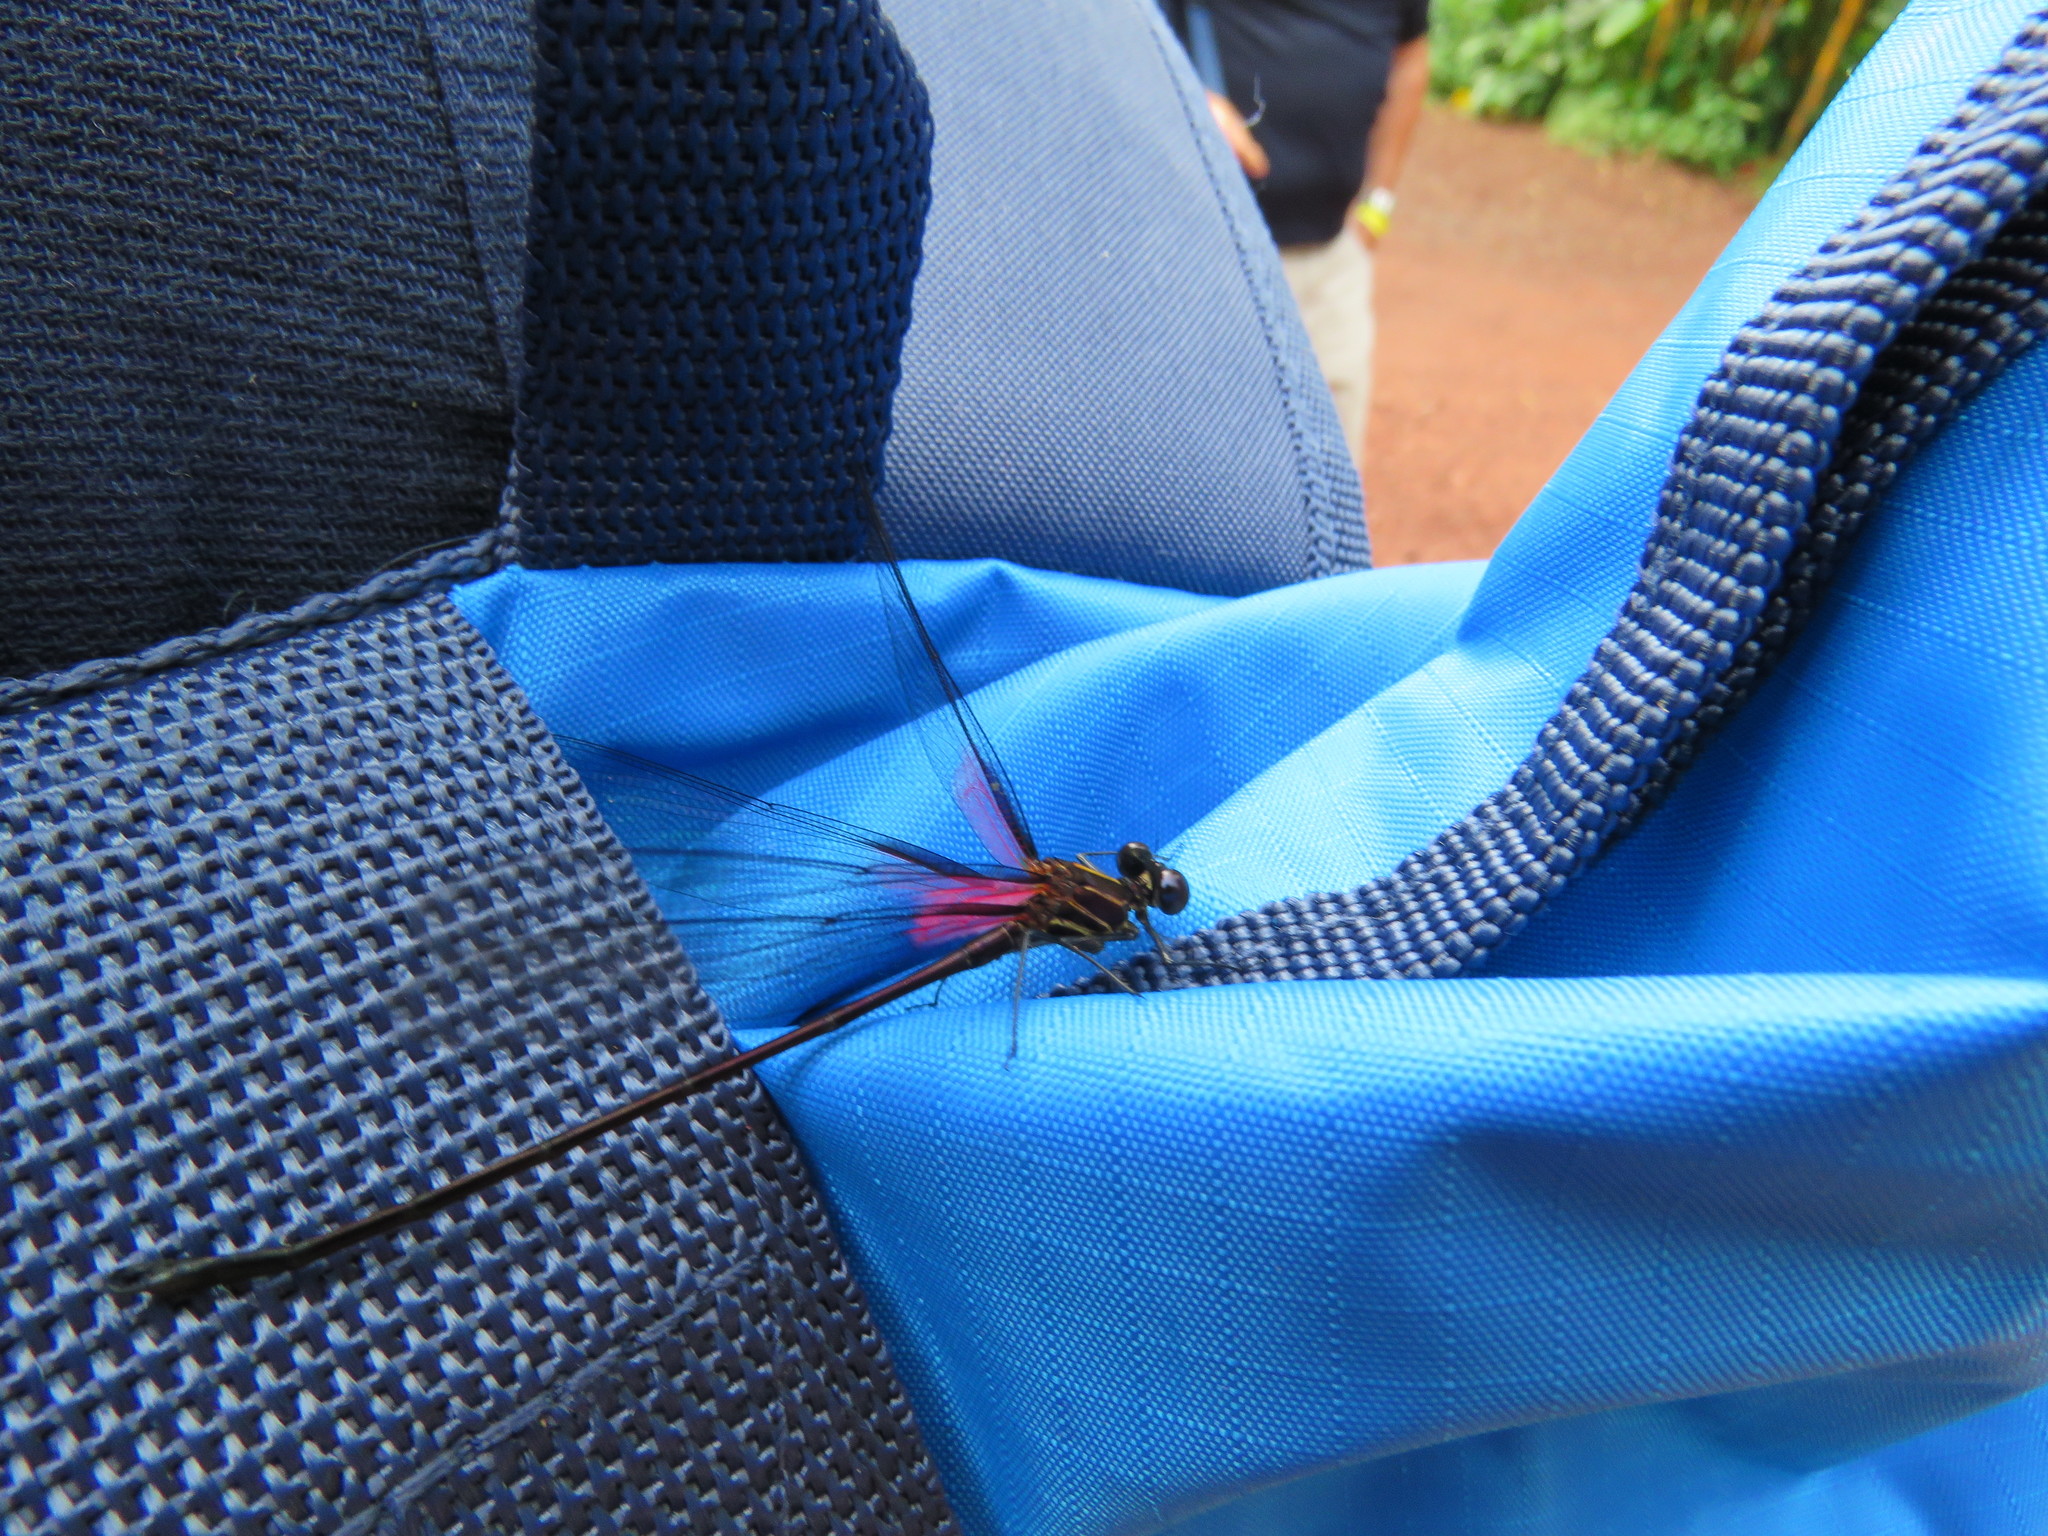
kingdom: Animalia
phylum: Arthropoda
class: Insecta
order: Odonata
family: Calopterygidae
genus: Hetaerina
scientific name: Hetaerina majuscula
